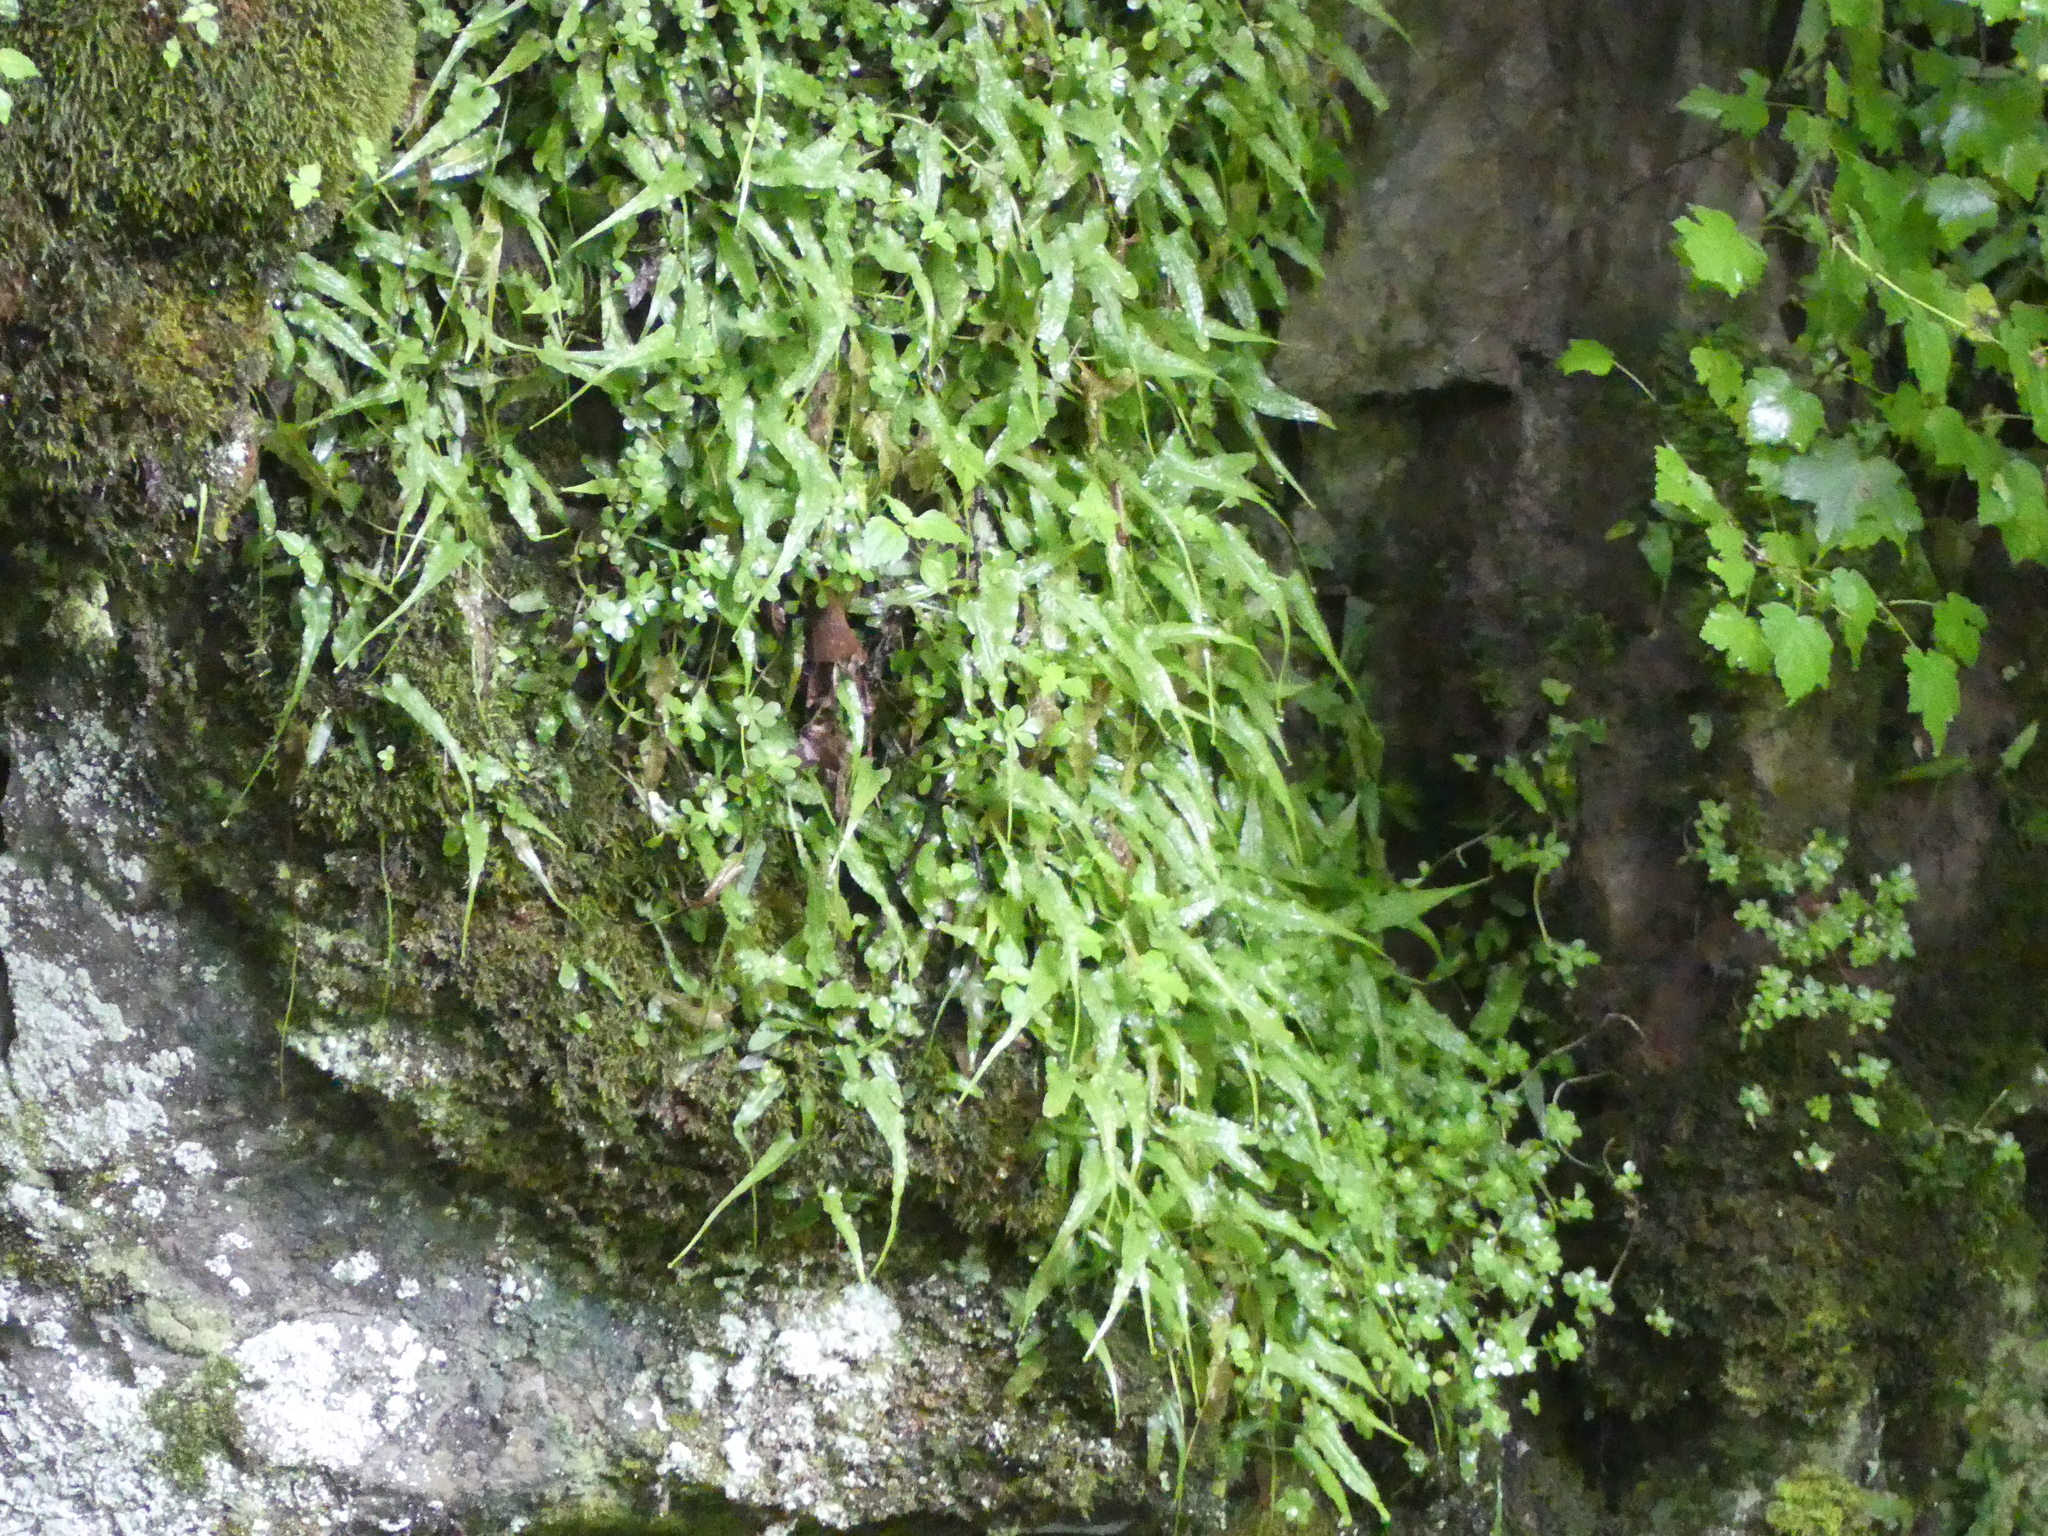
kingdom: Plantae
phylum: Tracheophyta
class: Magnoliopsida
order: Saxifragales
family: Crassulaceae
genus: Sedum
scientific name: Sedum ternatum
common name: Wild stonecrop
